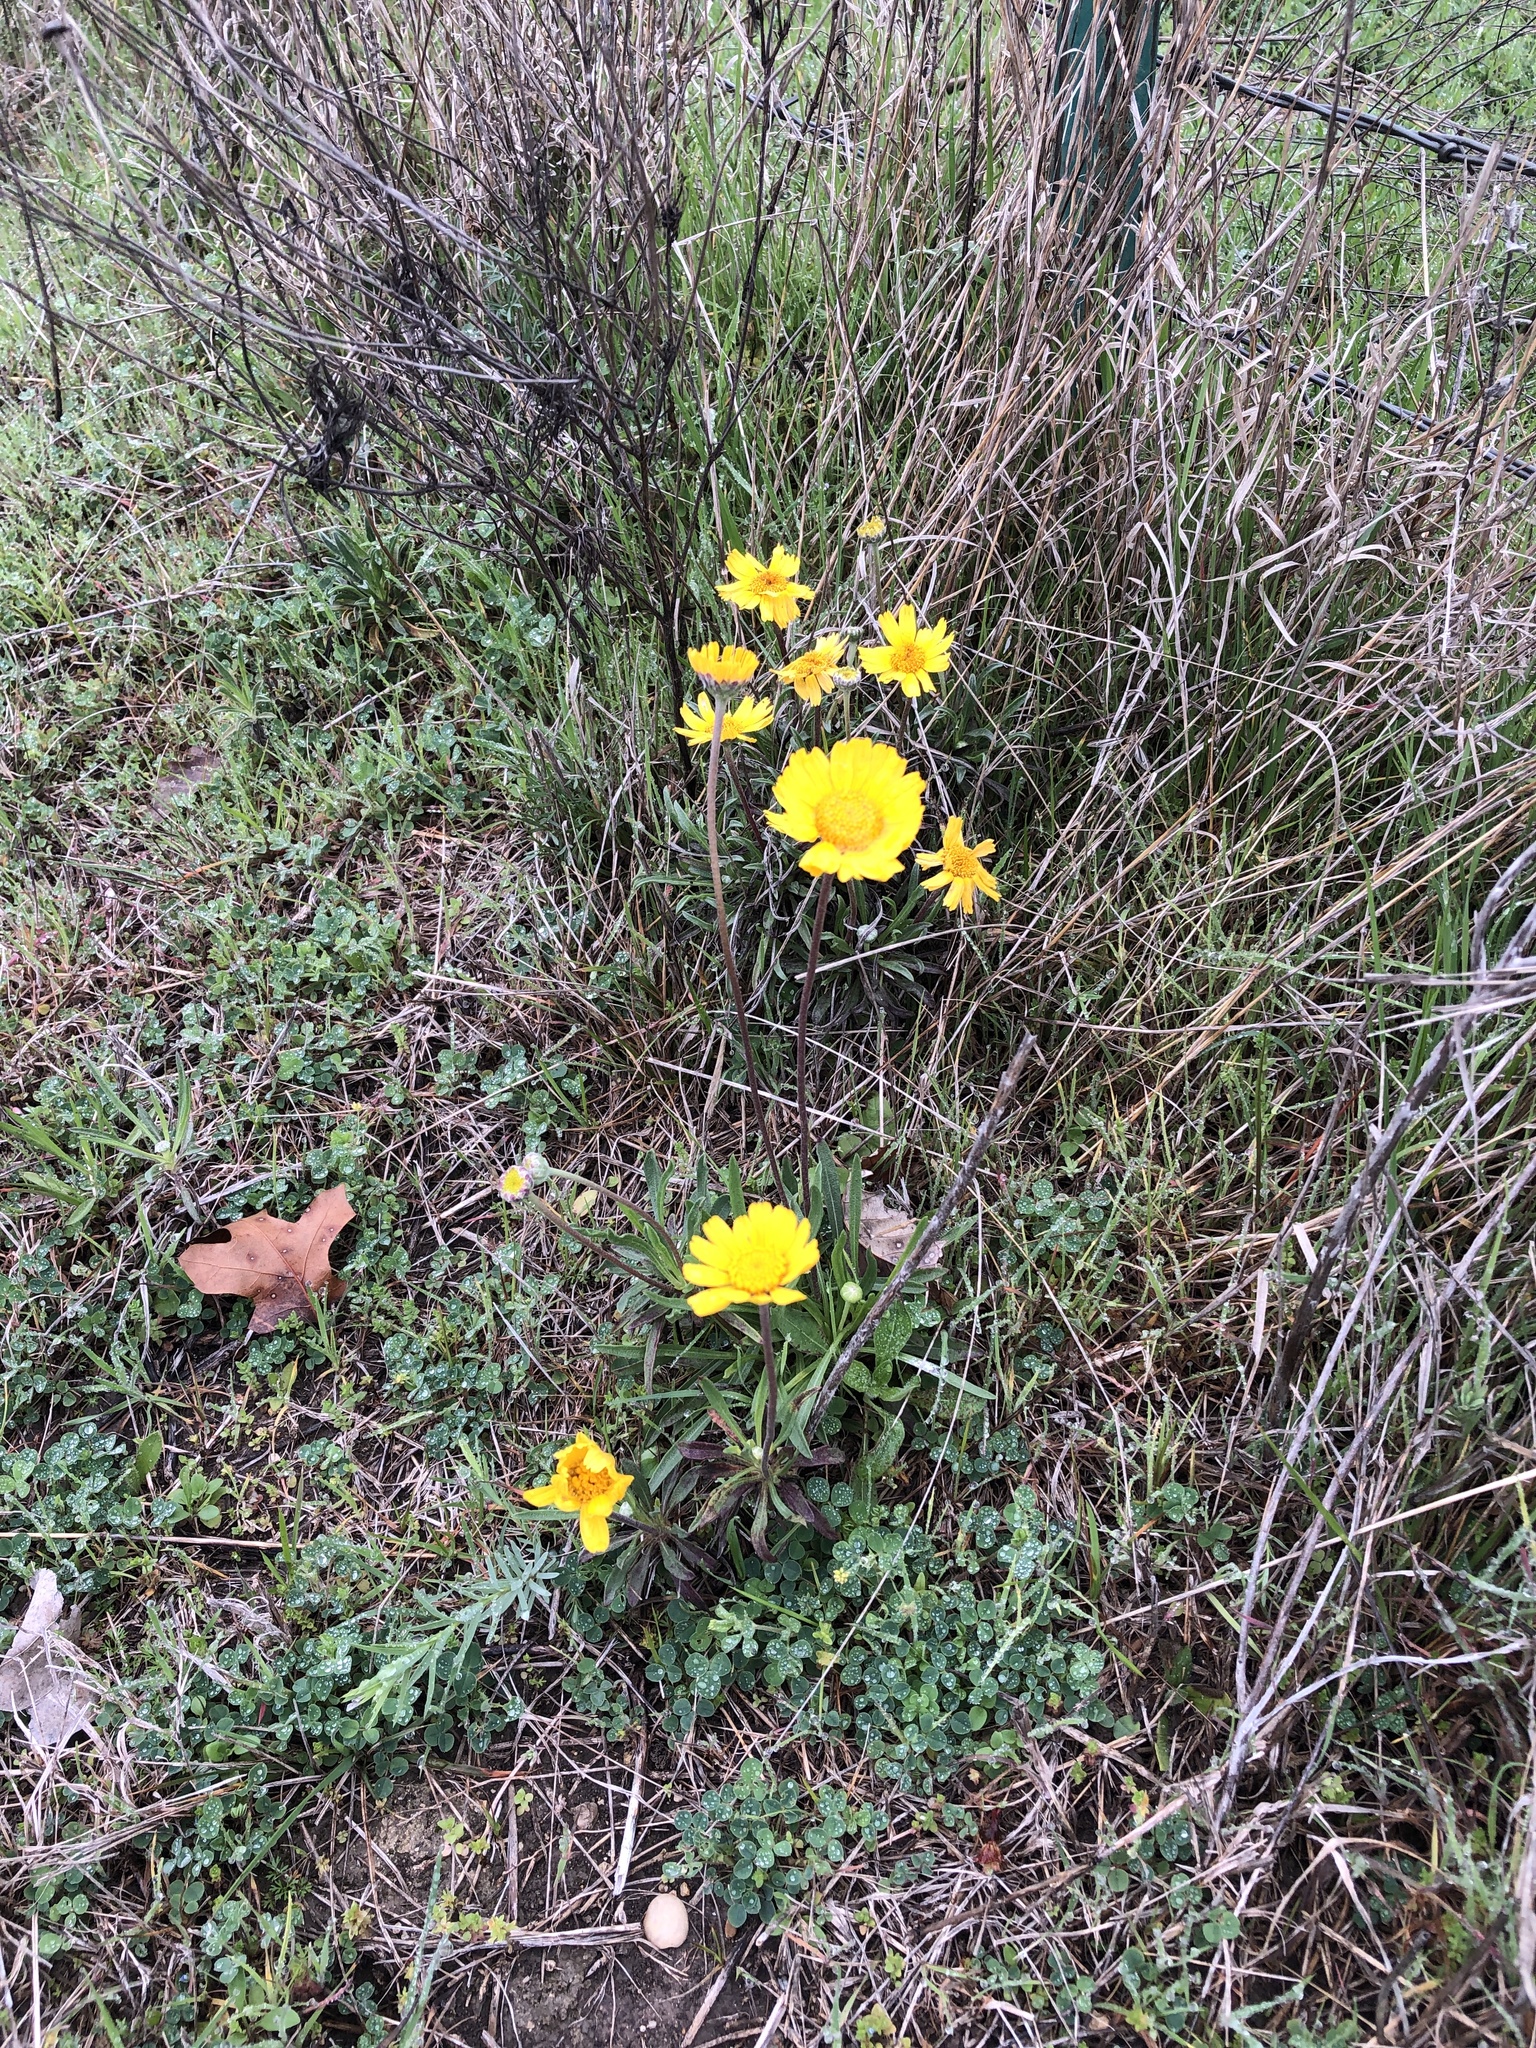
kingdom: Plantae
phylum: Tracheophyta
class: Magnoliopsida
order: Asterales
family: Asteraceae
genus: Tetraneuris
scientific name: Tetraneuris scaposa
